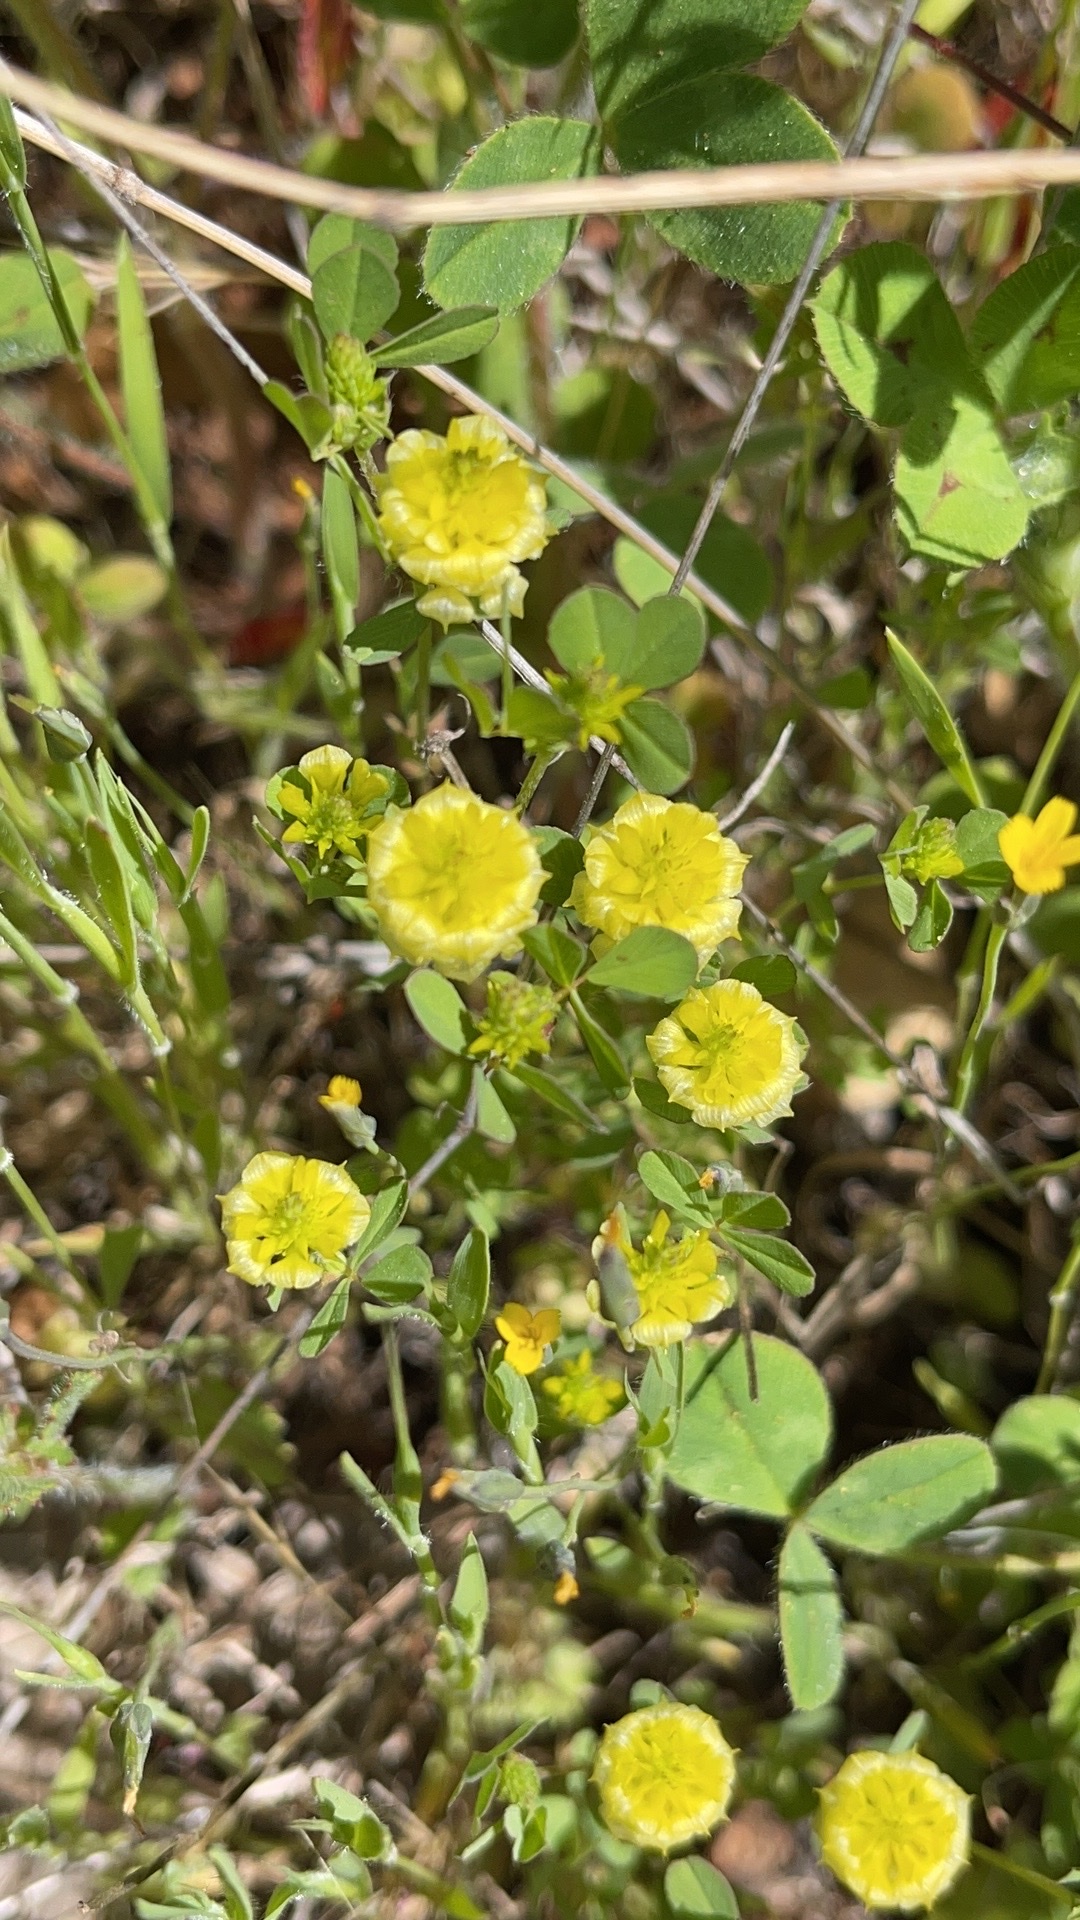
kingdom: Plantae
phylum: Tracheophyta
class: Magnoliopsida
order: Fabales
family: Fabaceae
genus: Trifolium
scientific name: Trifolium campestre
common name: Field clover
